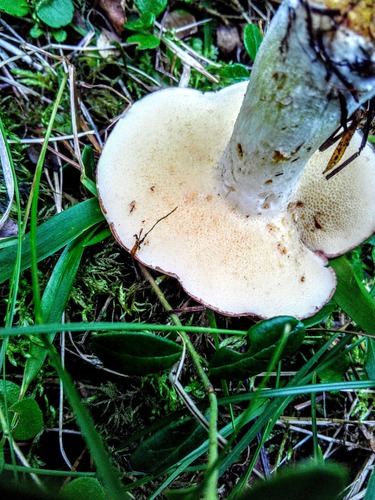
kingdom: Fungi
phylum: Basidiomycota
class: Agaricomycetes
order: Boletales
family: Suillaceae
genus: Suillus
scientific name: Suillus placidus
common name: Slippery white bolete
